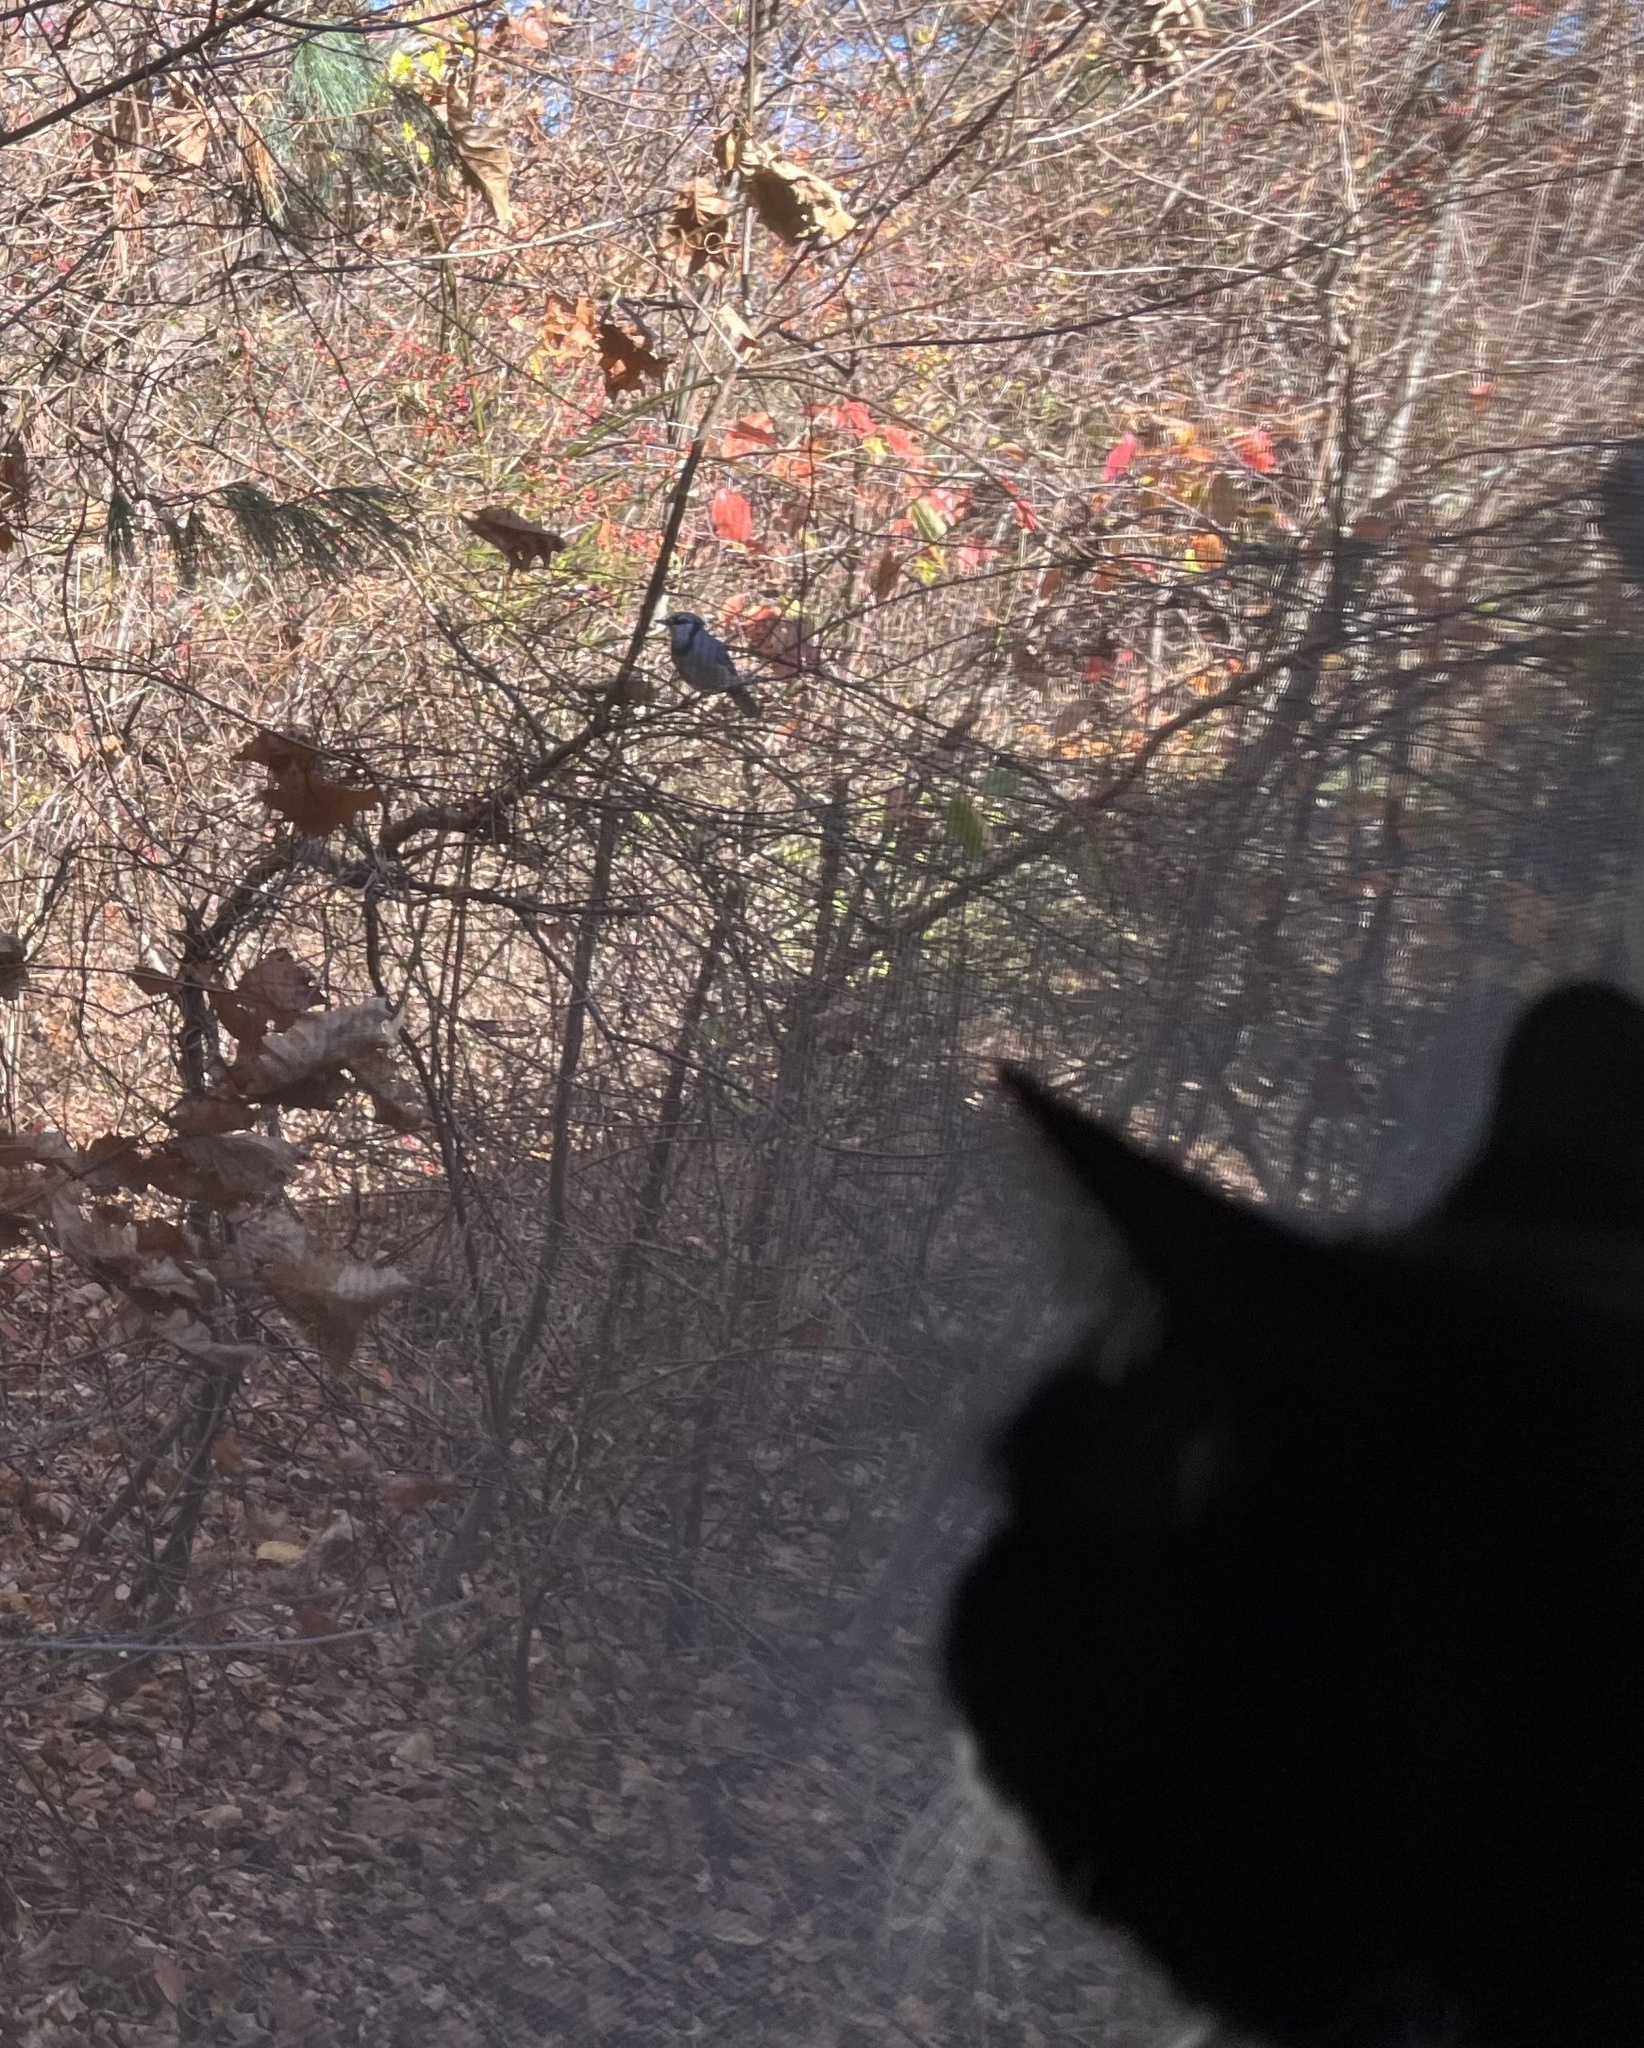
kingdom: Animalia
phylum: Chordata
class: Aves
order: Passeriformes
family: Corvidae
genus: Cyanocitta
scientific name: Cyanocitta cristata
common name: Blue jay
